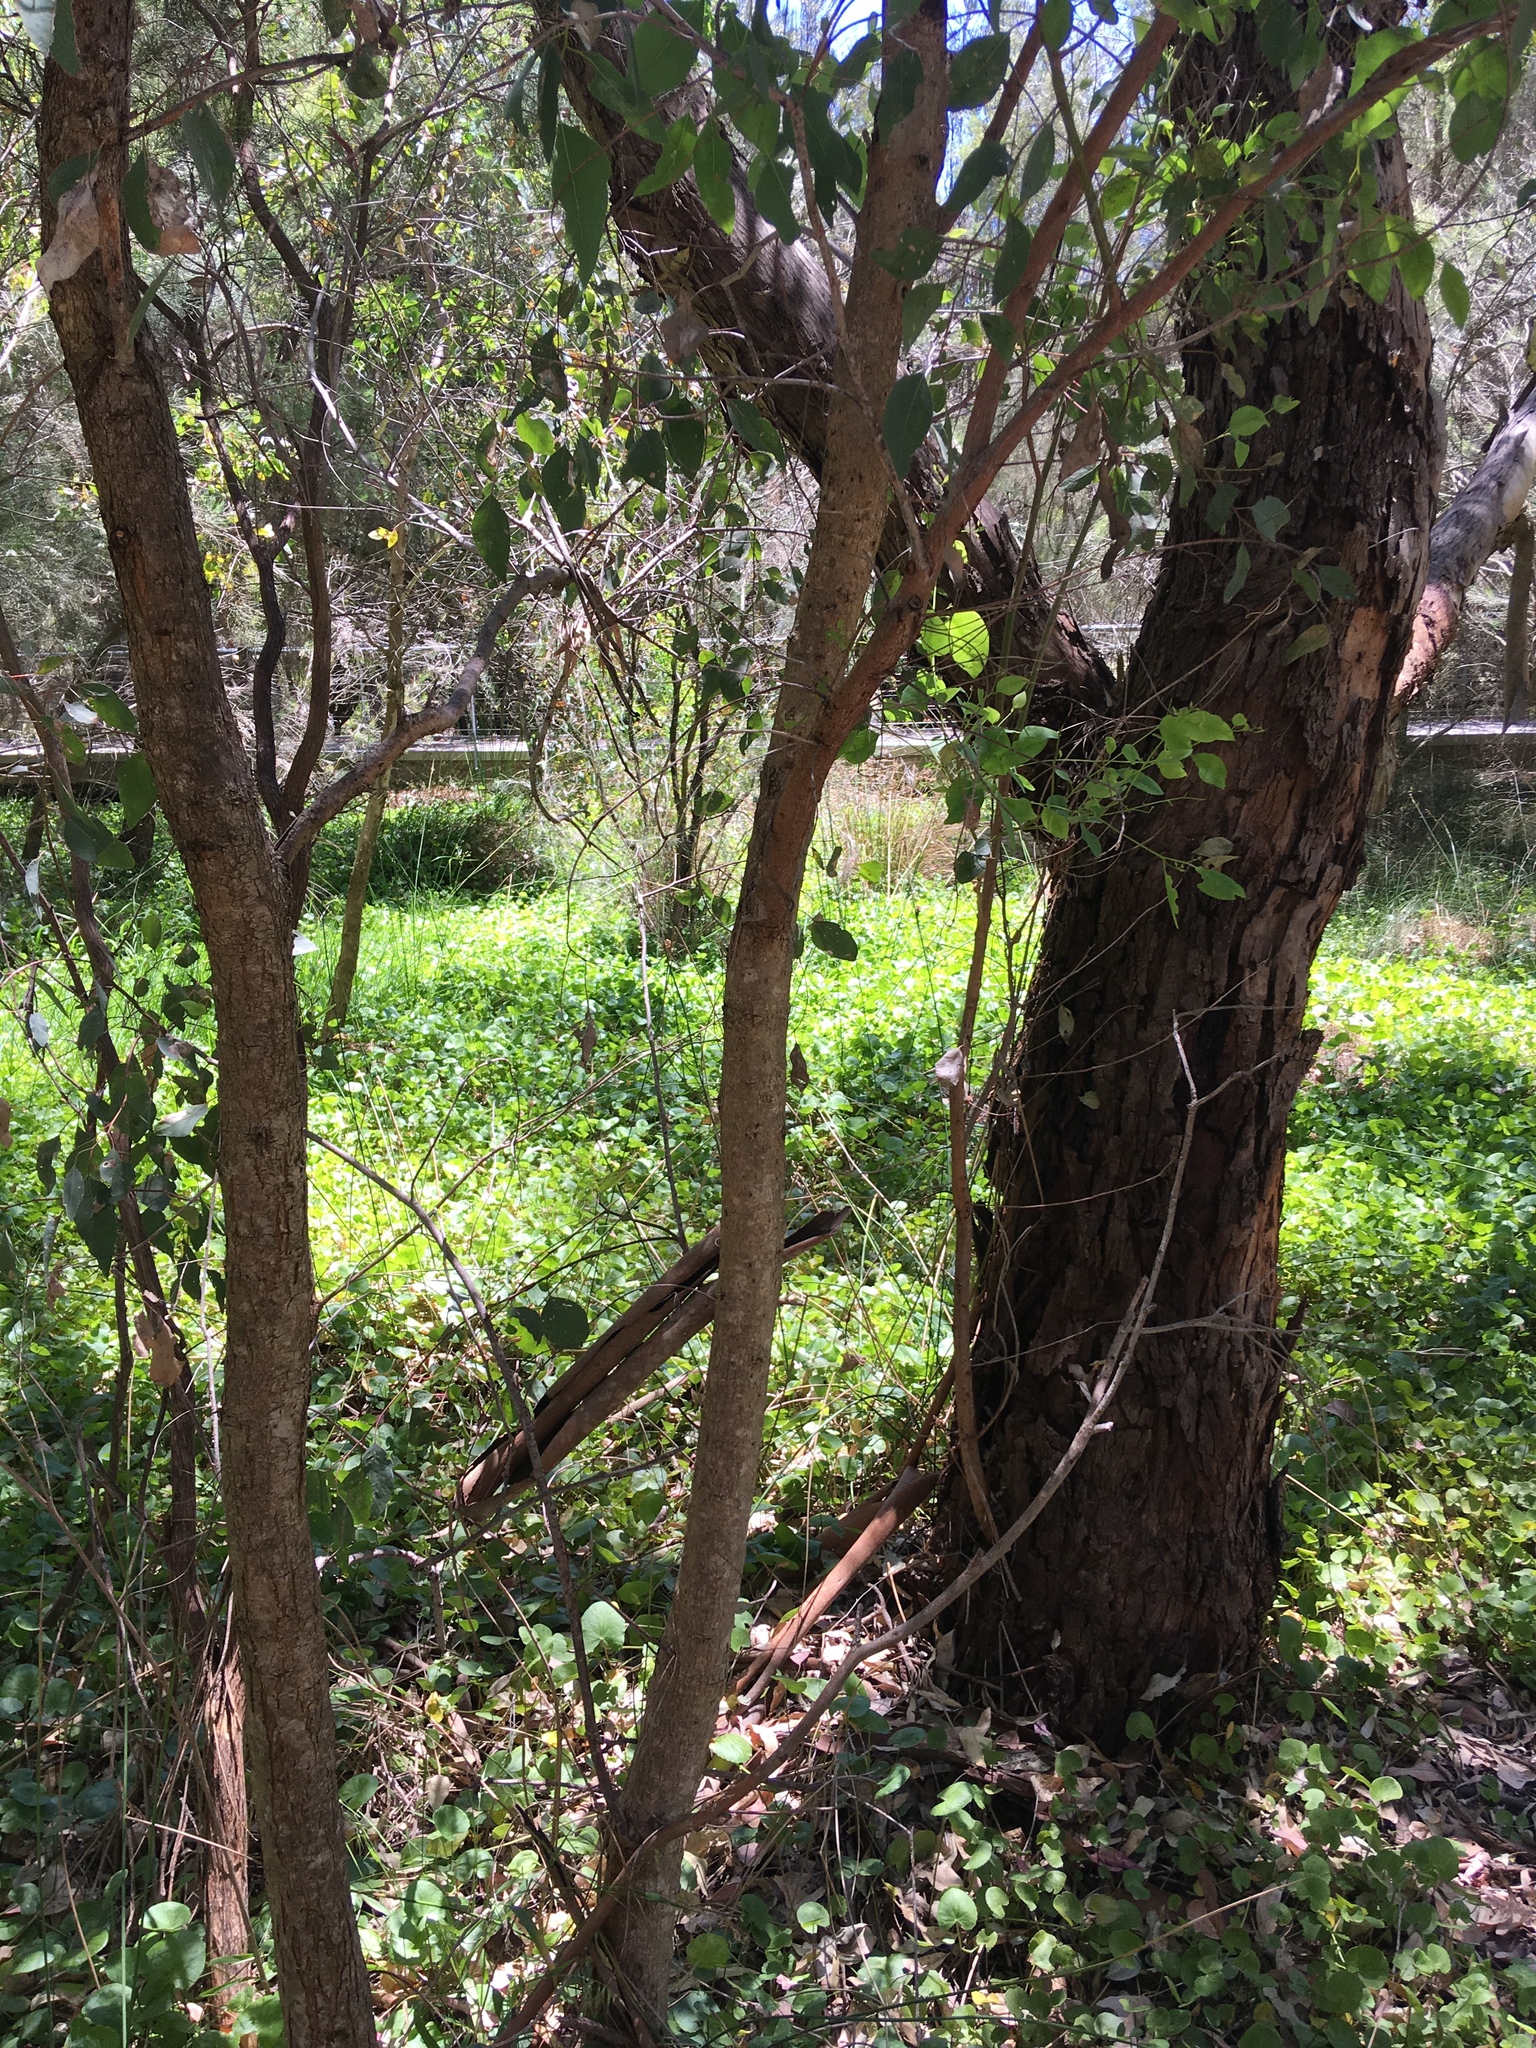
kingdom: Plantae
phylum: Tracheophyta
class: Magnoliopsida
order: Myrtales
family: Myrtaceae
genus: Eucalyptus
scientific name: Eucalyptus rudis
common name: Flooded gum
